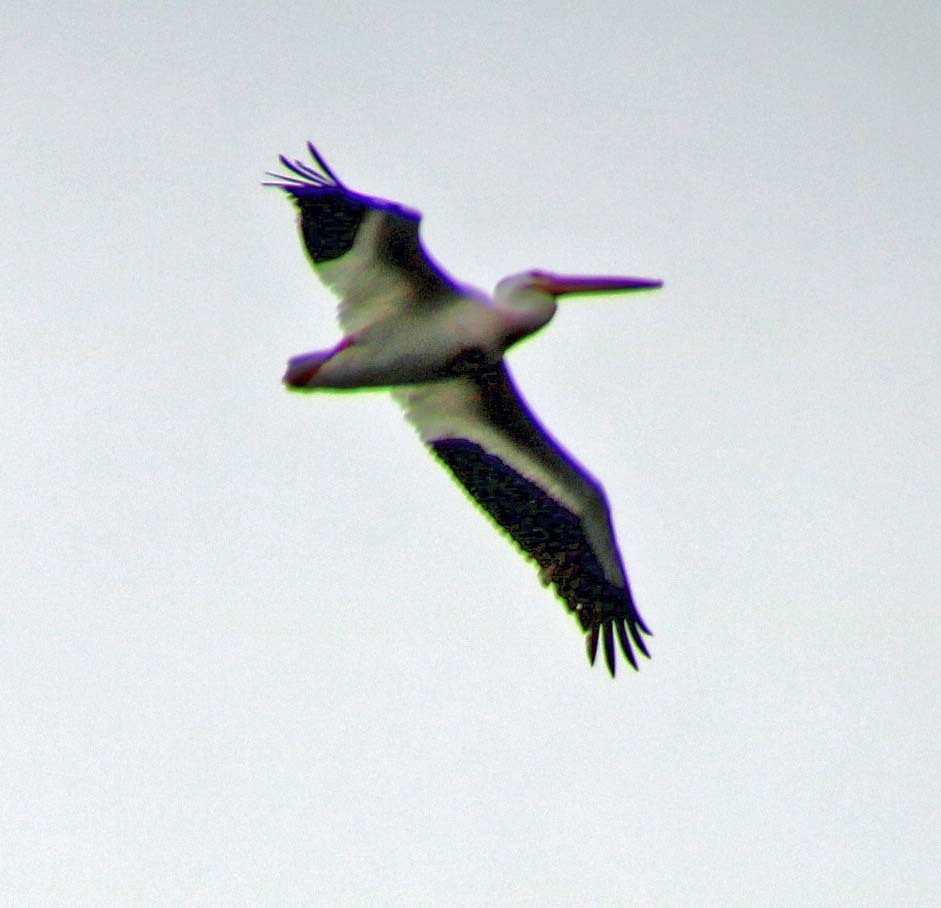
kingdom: Animalia
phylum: Chordata
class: Aves
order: Pelecaniformes
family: Pelecanidae
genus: Pelecanus
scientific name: Pelecanus erythrorhynchos
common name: American white pelican
